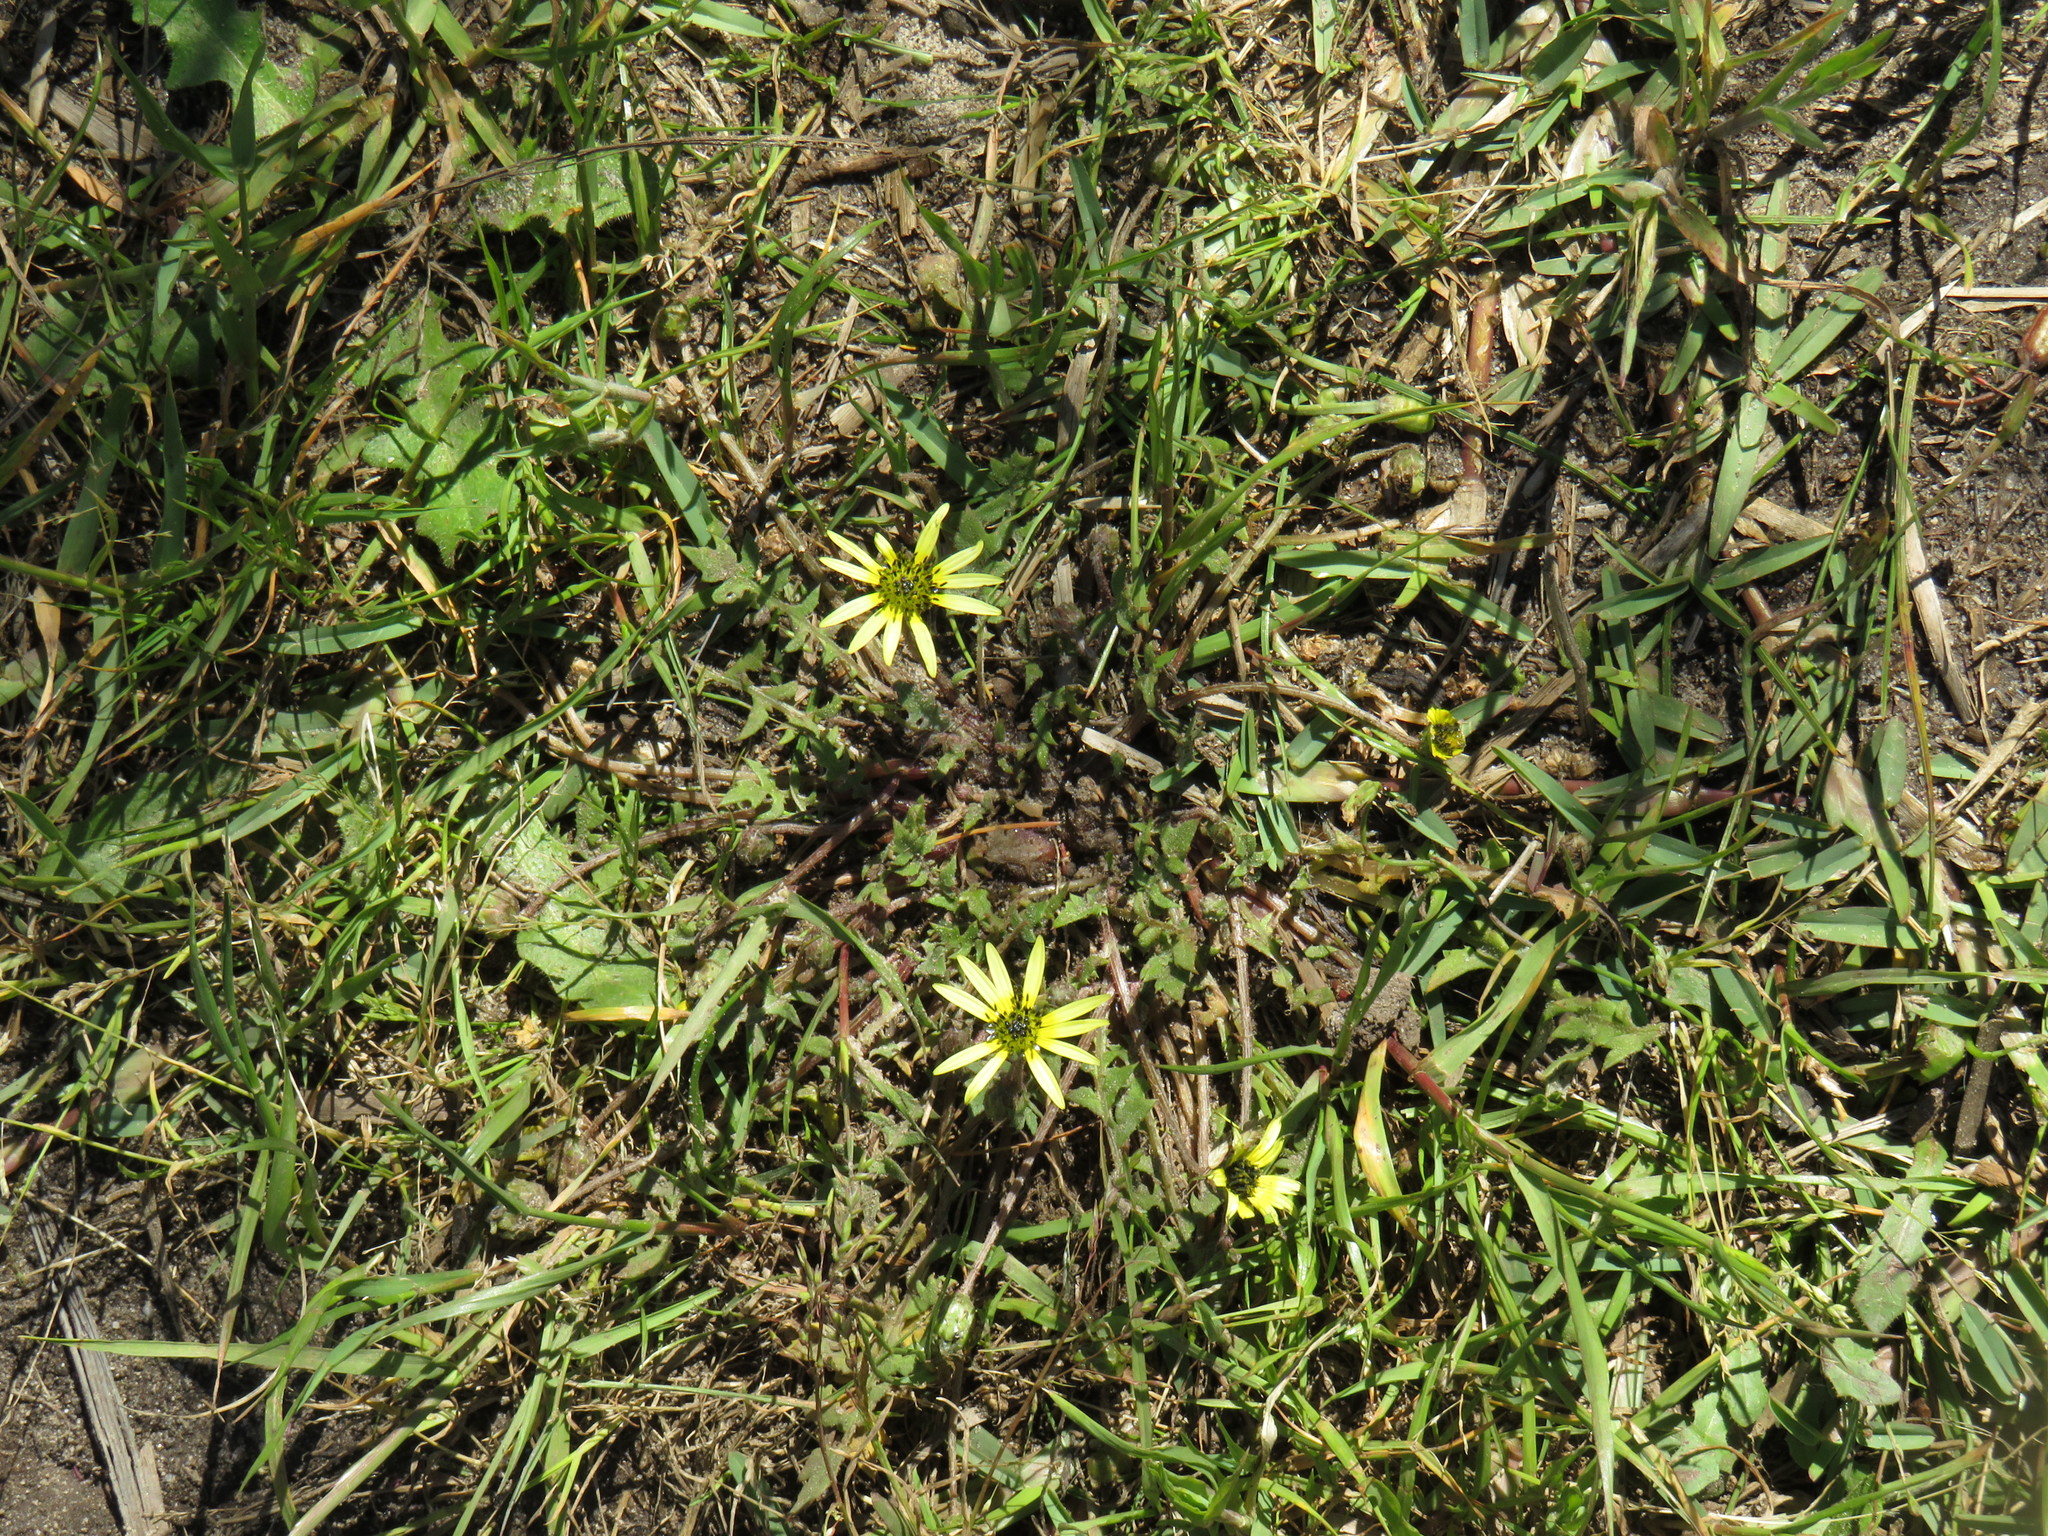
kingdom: Plantae
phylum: Tracheophyta
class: Magnoliopsida
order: Asterales
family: Asteraceae
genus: Arctotheca
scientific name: Arctotheca calendula
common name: Capeweed
